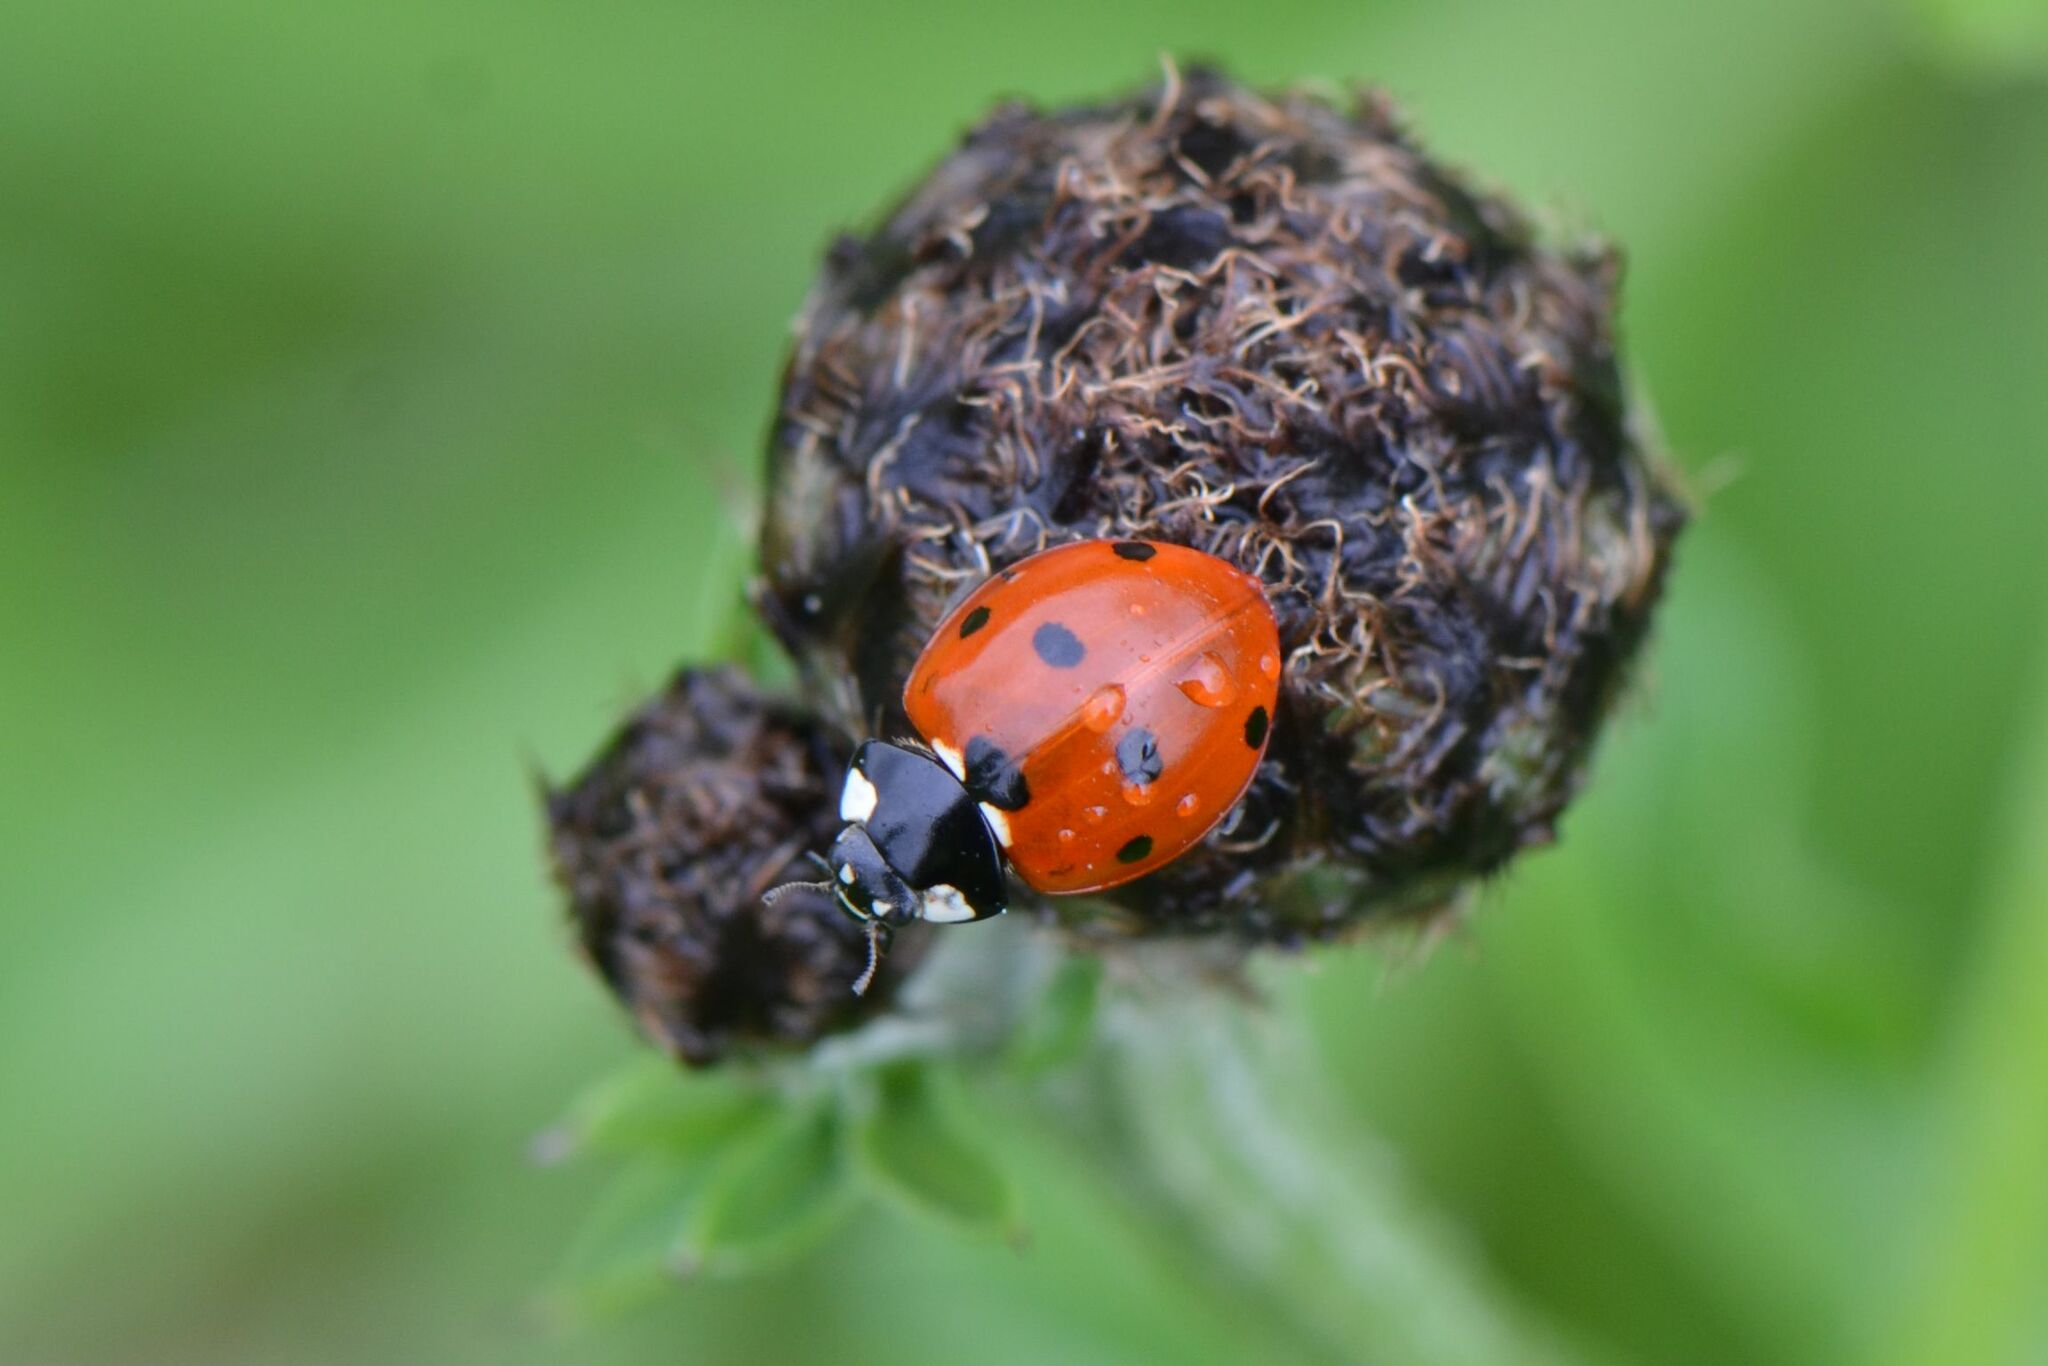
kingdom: Animalia
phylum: Arthropoda
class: Insecta
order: Coleoptera
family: Coccinellidae
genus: Coccinella
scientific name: Coccinella septempunctata
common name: Sevenspotted lady beetle
